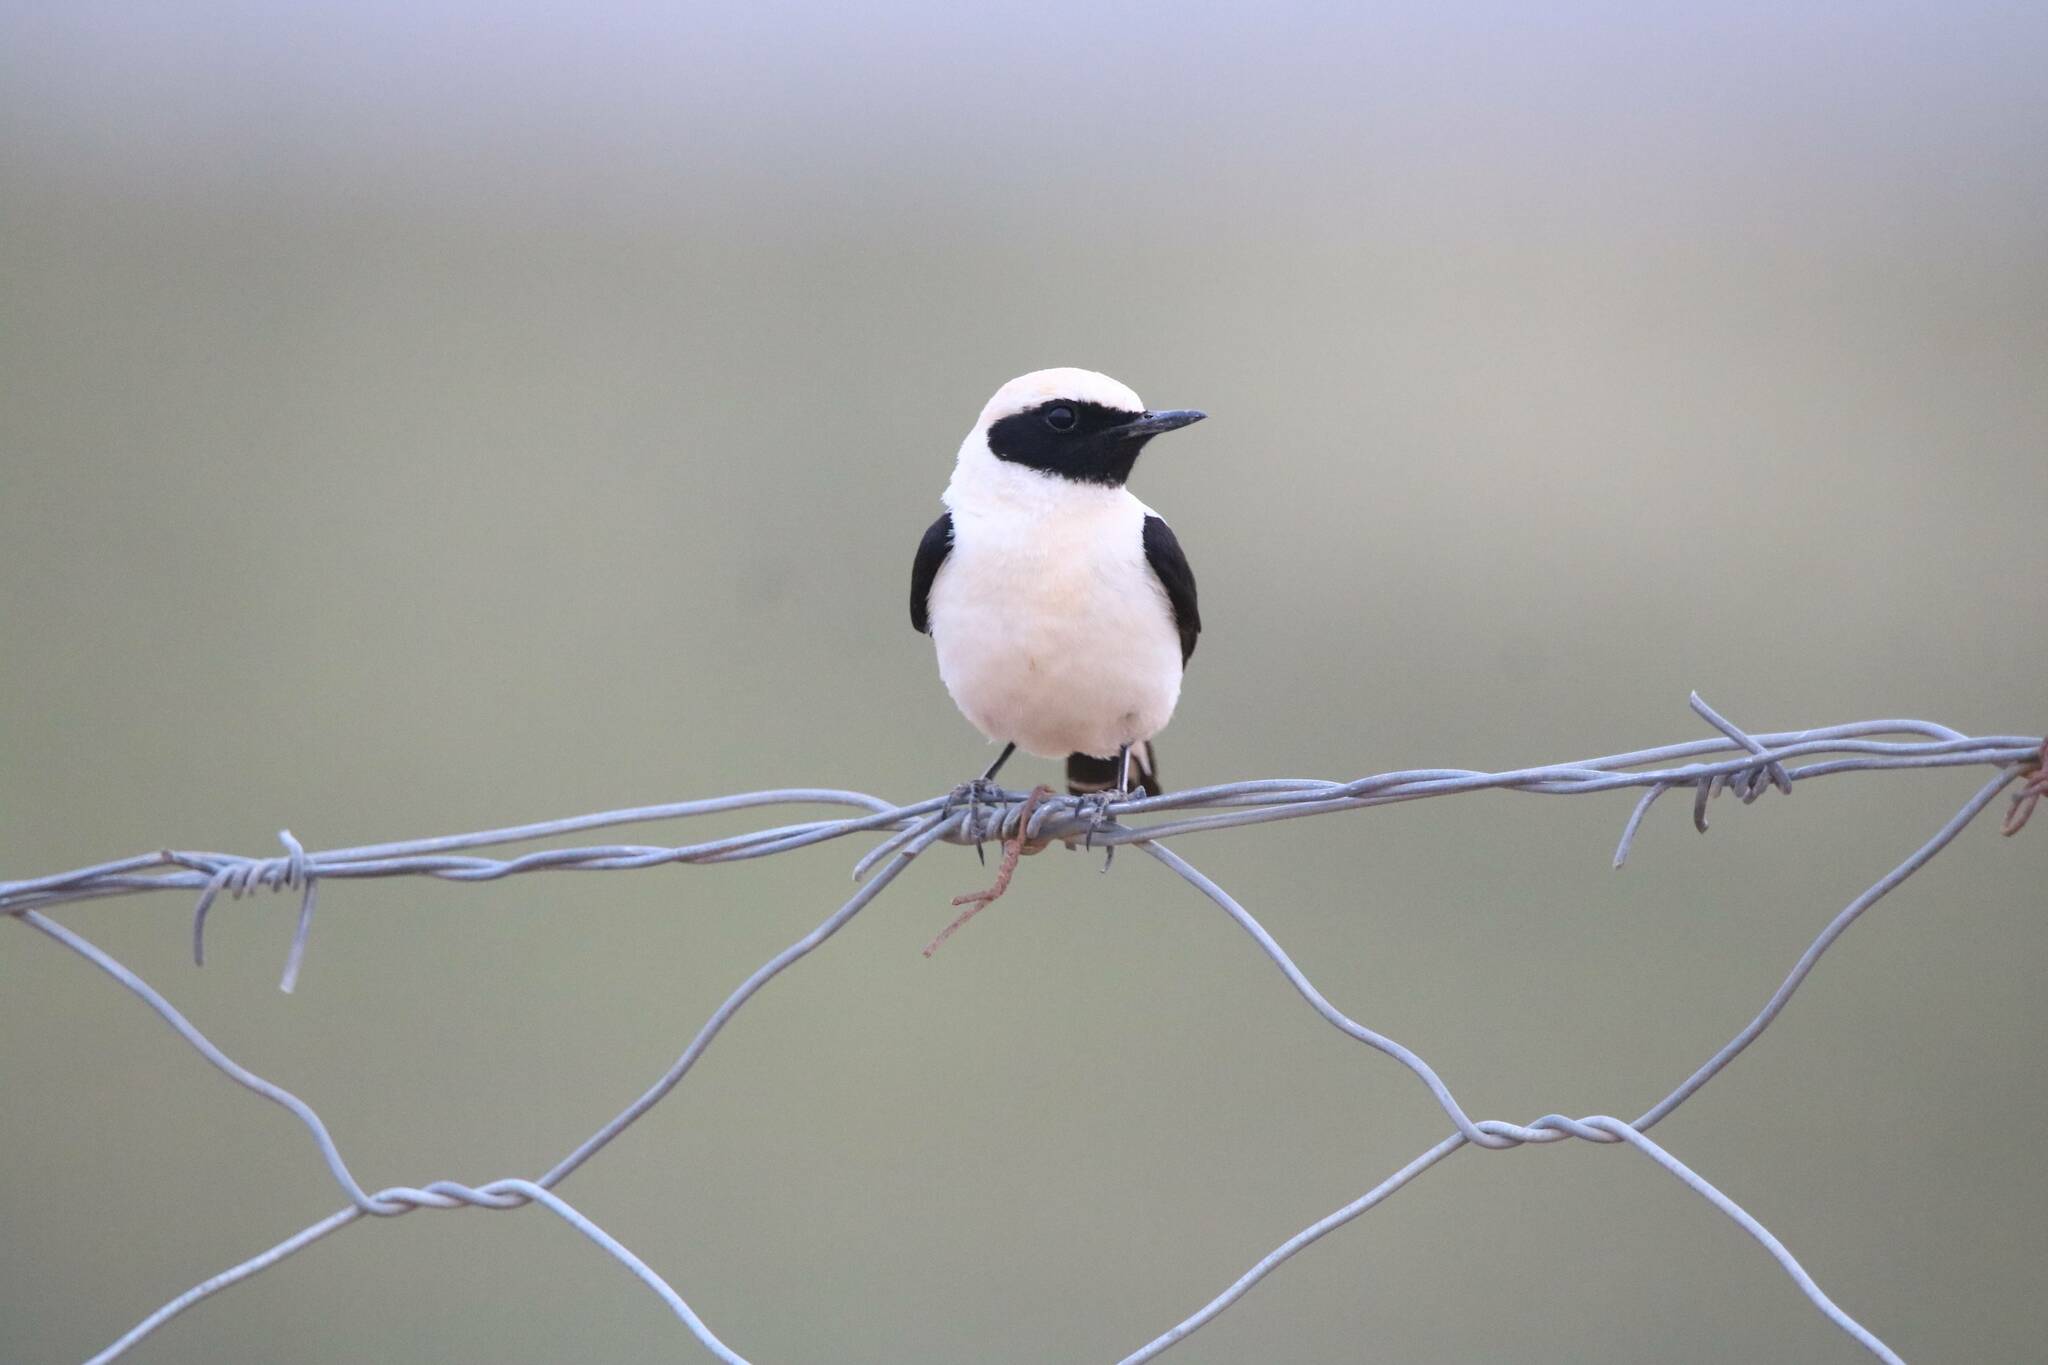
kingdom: Animalia
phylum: Chordata
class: Aves
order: Passeriformes
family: Muscicapidae
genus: Oenanthe
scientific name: Oenanthe hispanica
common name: Black-eared wheatear
